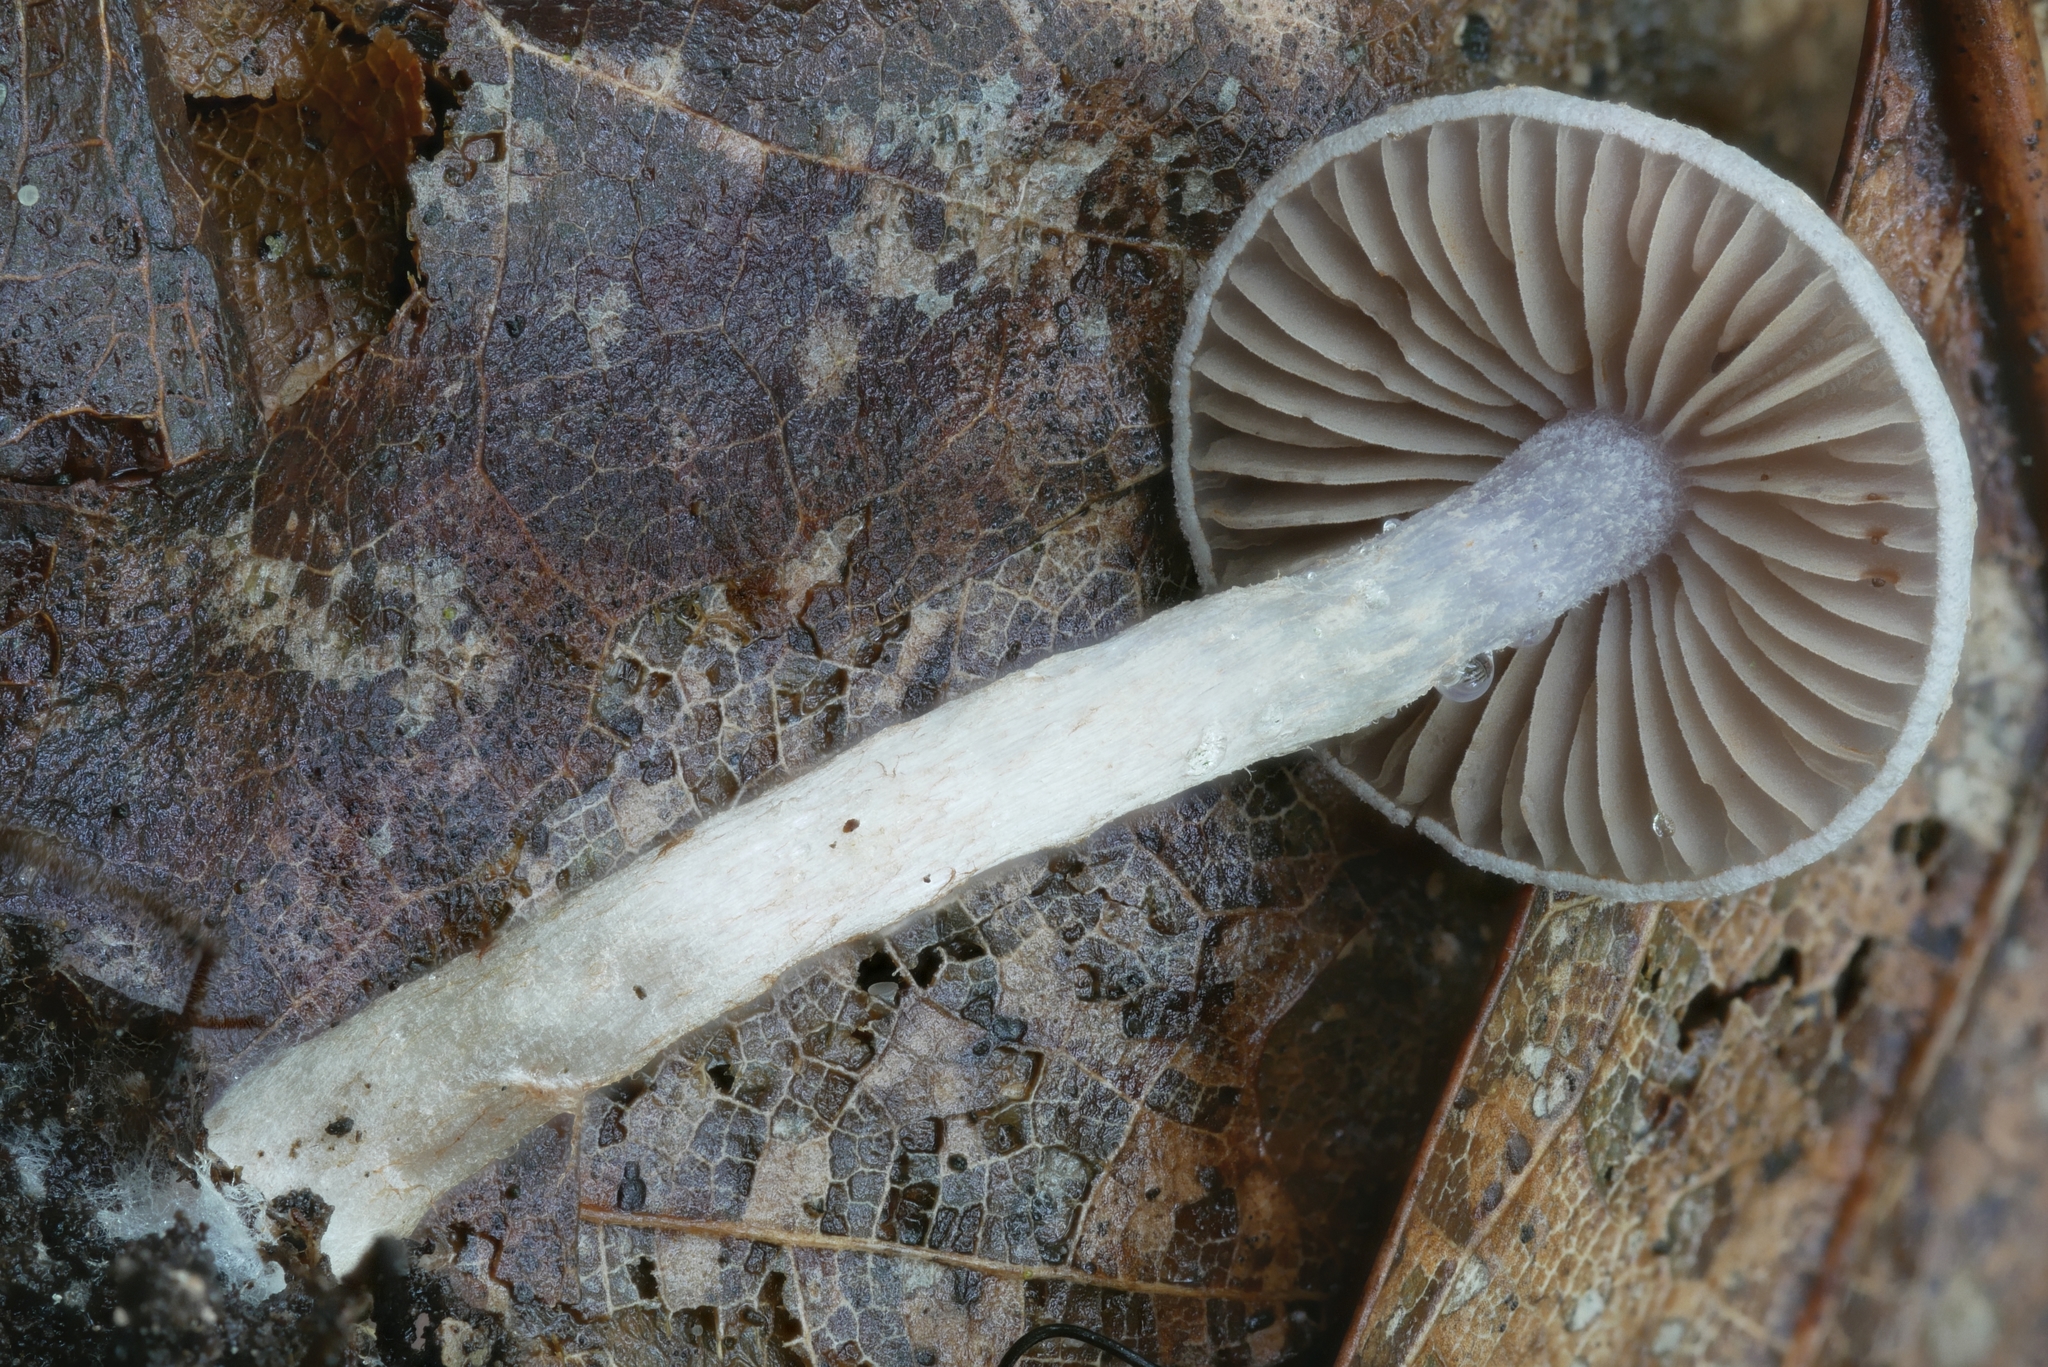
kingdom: Fungi
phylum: Basidiomycota
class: Agaricomycetes
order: Agaricales
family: Cortinariaceae
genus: Cortinarius
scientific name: Cortinarius perviolaceus
